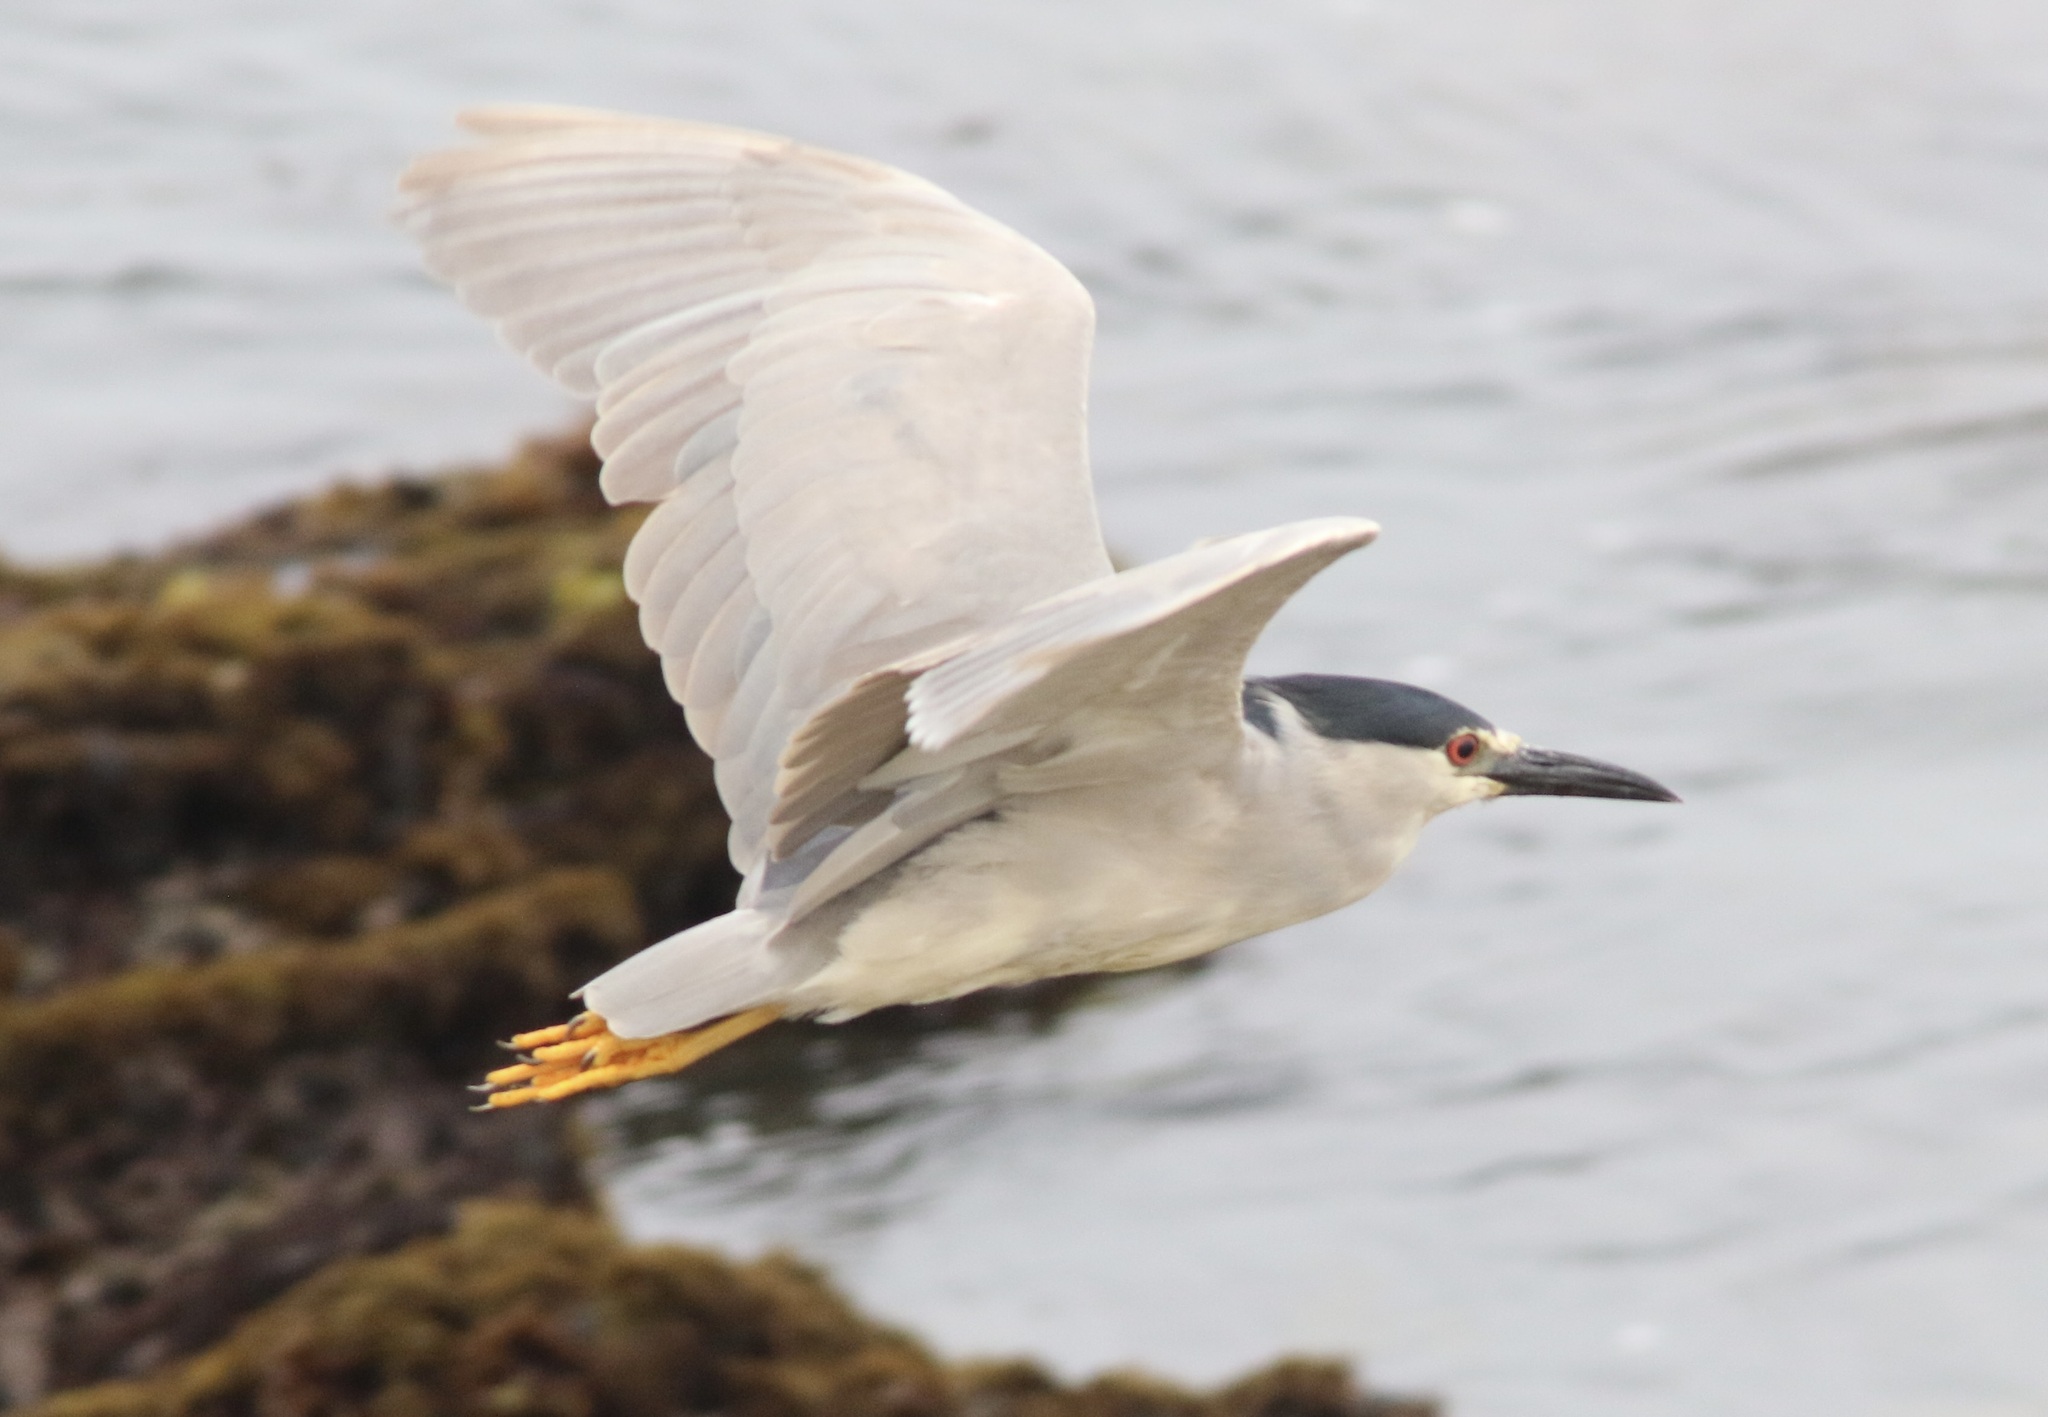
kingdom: Animalia
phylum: Chordata
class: Aves
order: Pelecaniformes
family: Ardeidae
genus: Nycticorax
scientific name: Nycticorax nycticorax
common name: Black-crowned night heron
